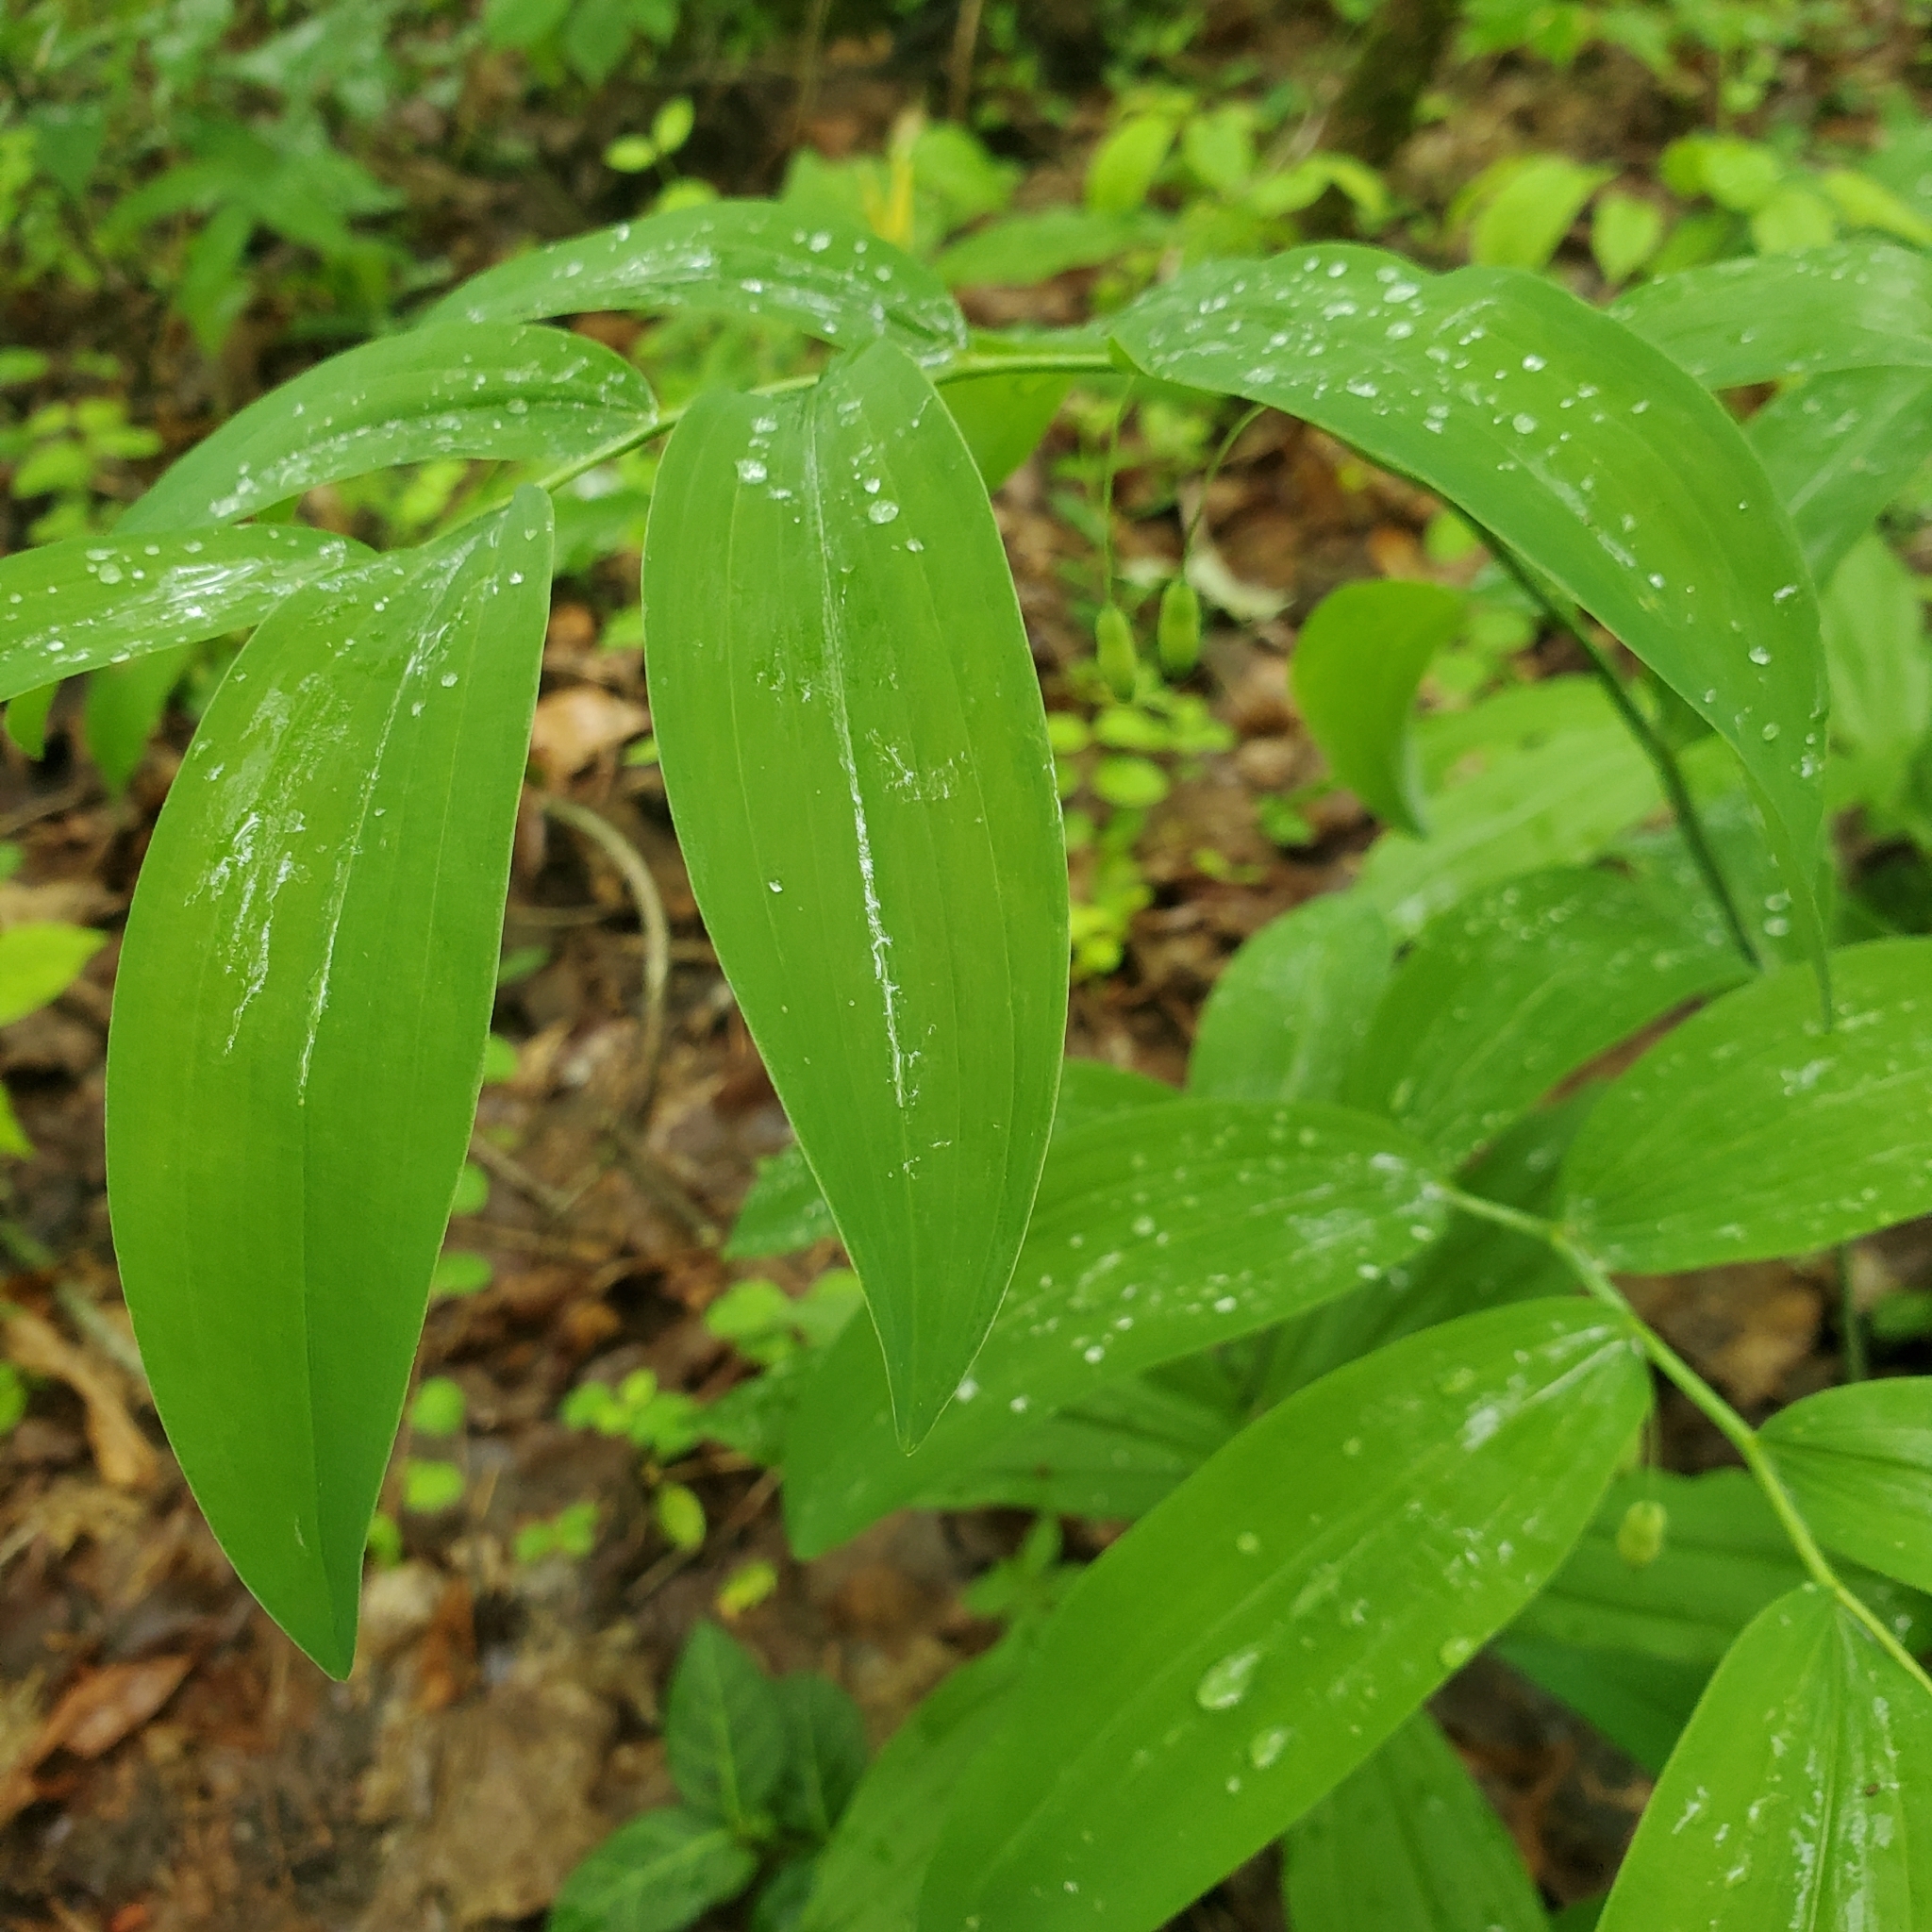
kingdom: Plantae
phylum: Tracheophyta
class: Liliopsida
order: Asparagales
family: Asparagaceae
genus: Polygonatum
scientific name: Polygonatum biflorum
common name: American solomon's-seal
